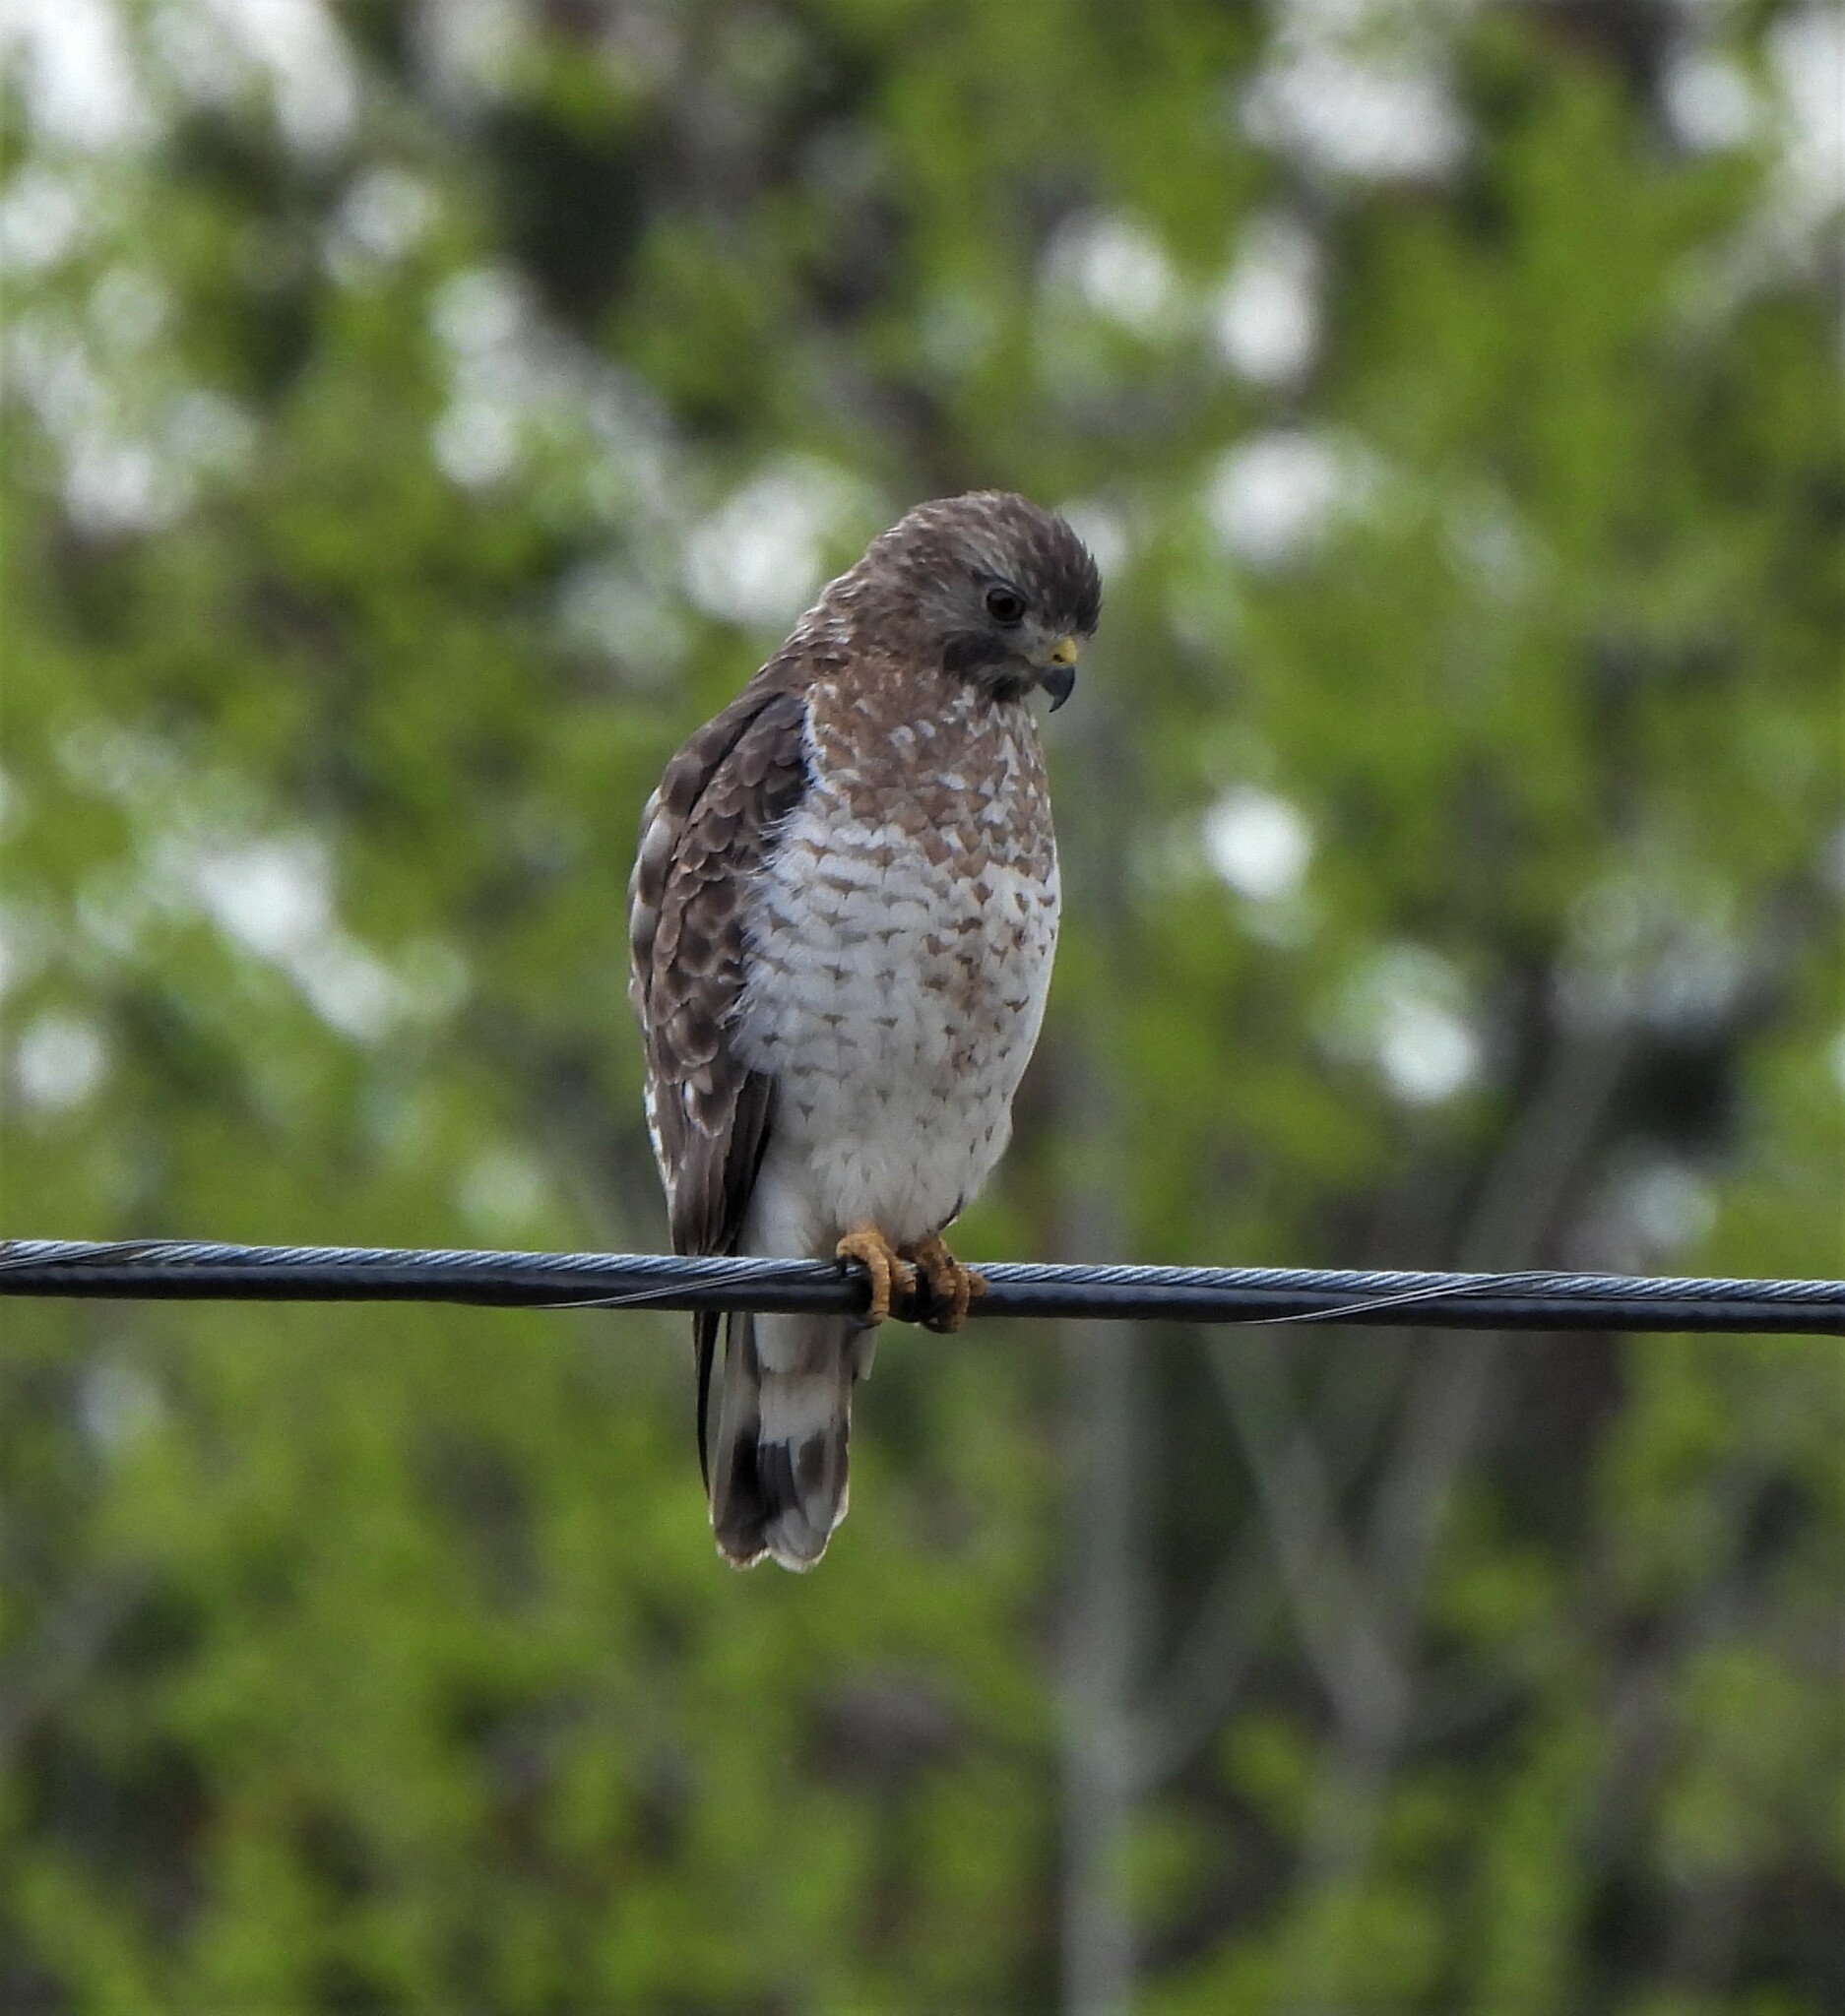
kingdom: Animalia
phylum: Chordata
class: Aves
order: Accipitriformes
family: Accipitridae
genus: Buteo
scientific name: Buteo platypterus
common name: Broad-winged hawk
